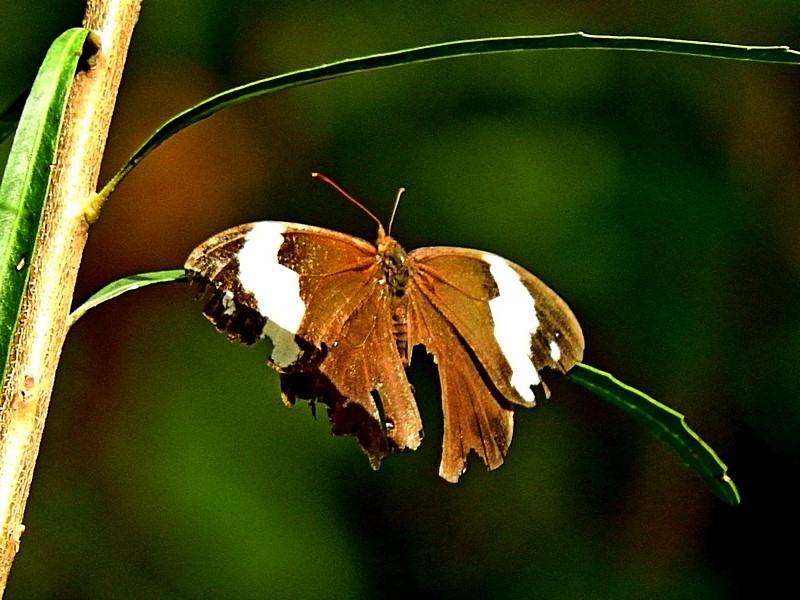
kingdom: Animalia
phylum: Arthropoda
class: Insecta
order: Lepidoptera
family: Nymphalidae
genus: Heteronympha
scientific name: Heteronympha mirifica
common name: Wonder brown
